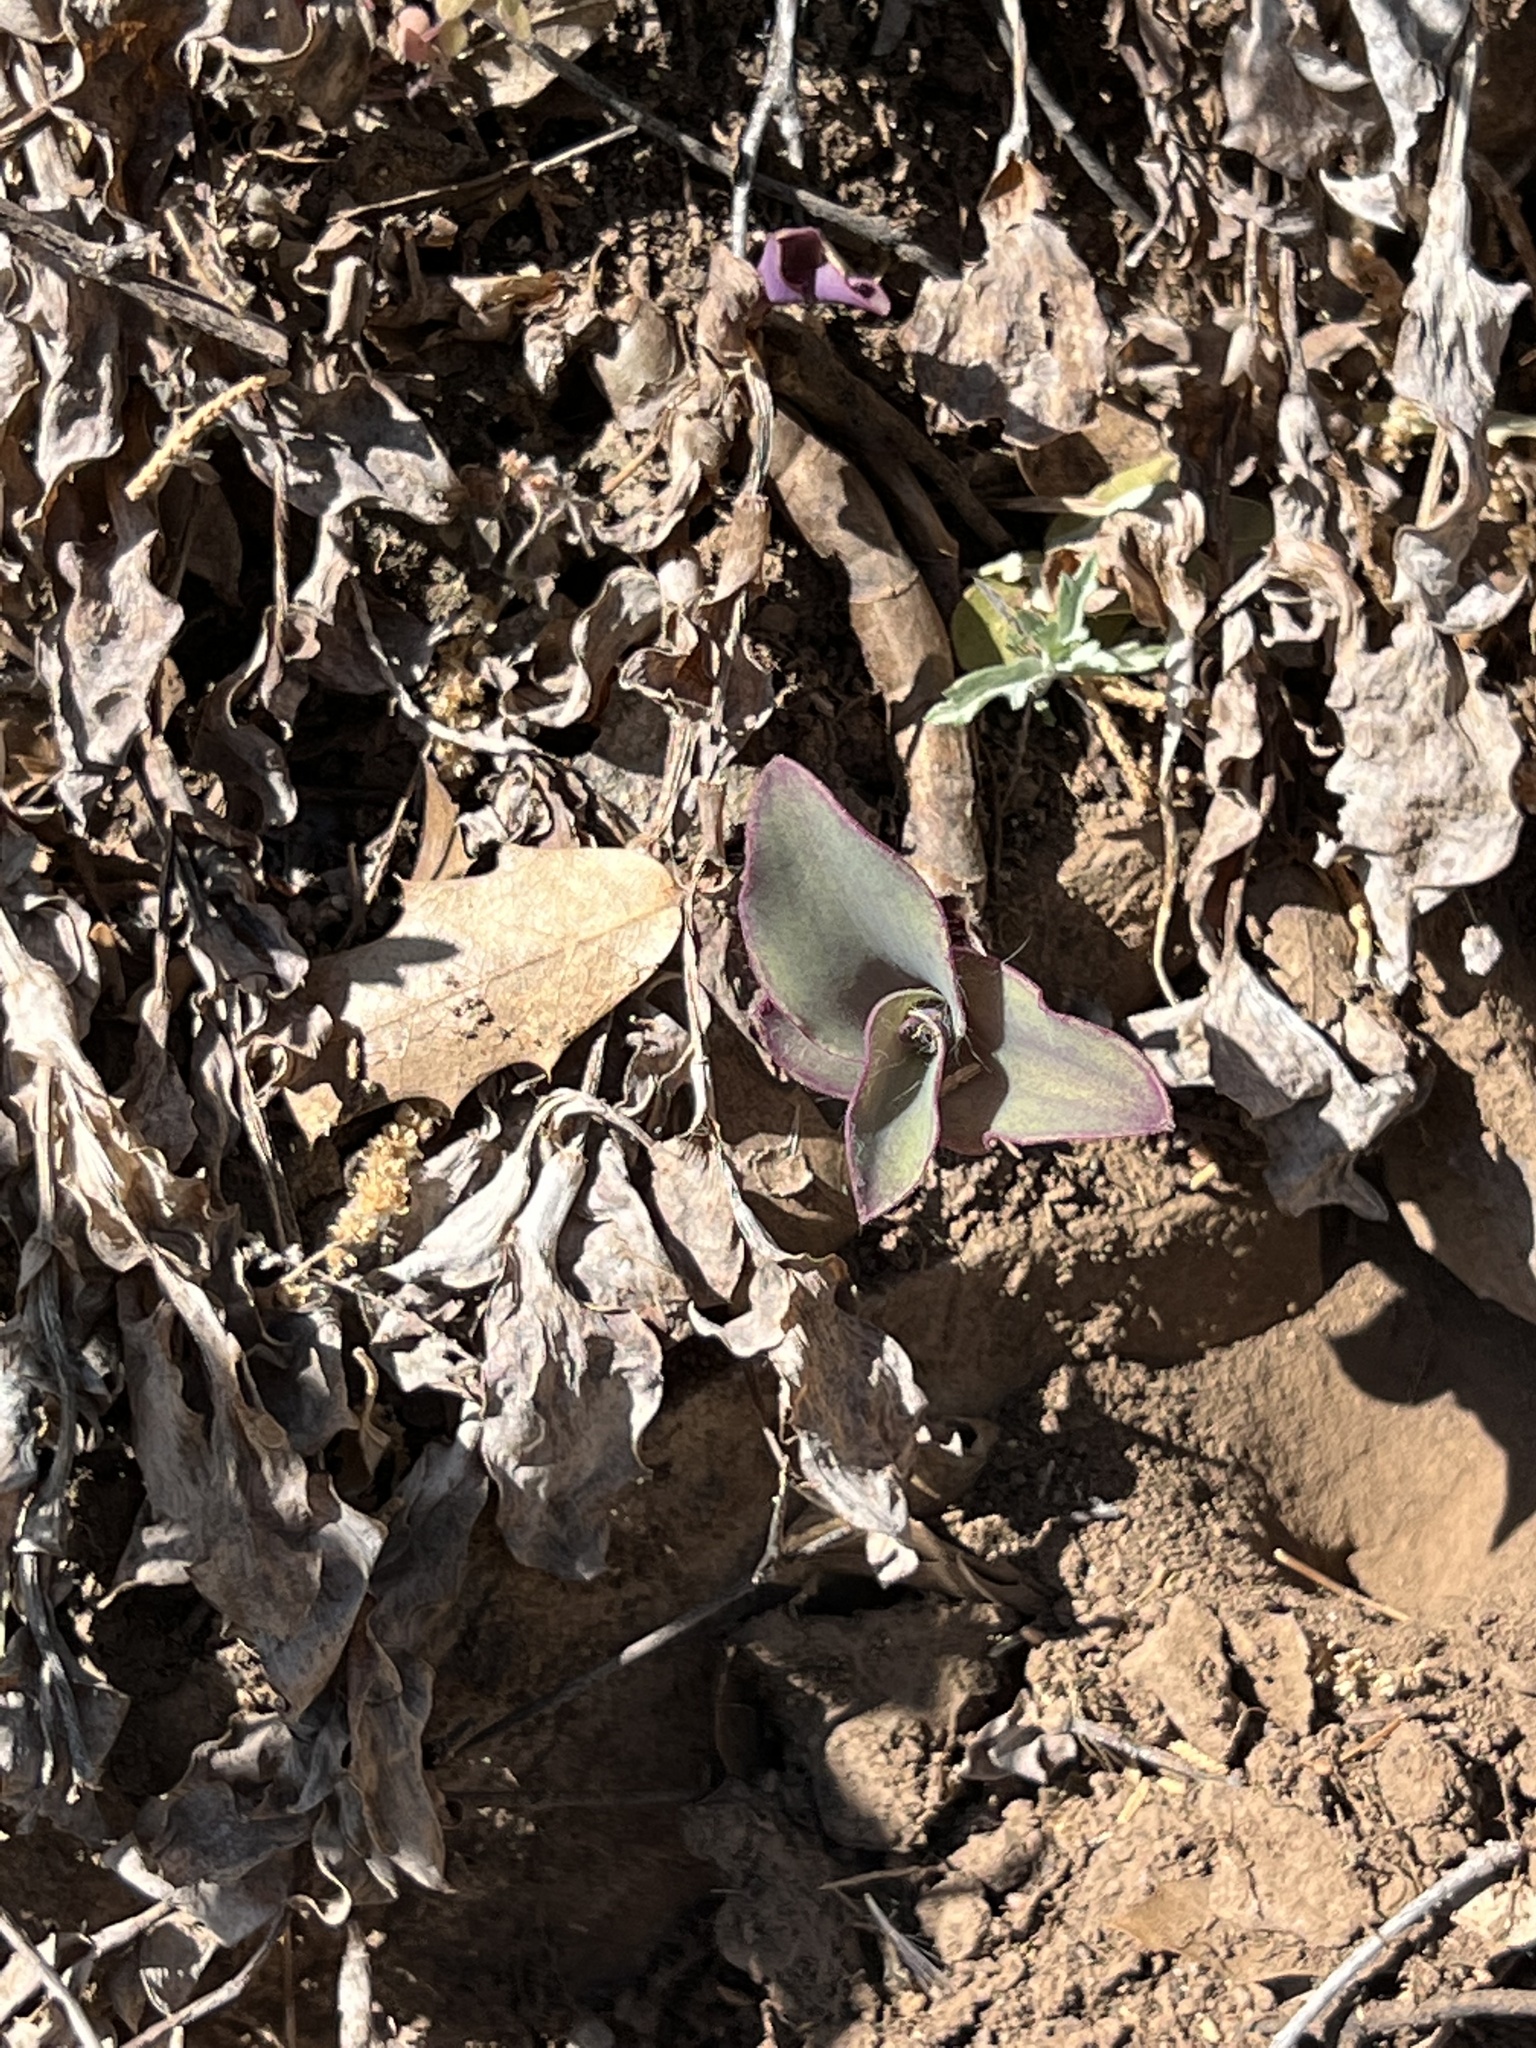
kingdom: Plantae
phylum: Tracheophyta
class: Liliopsida
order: Commelinales
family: Commelinaceae
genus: Tradescantia
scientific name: Tradescantia pallida
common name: Purpleheart
